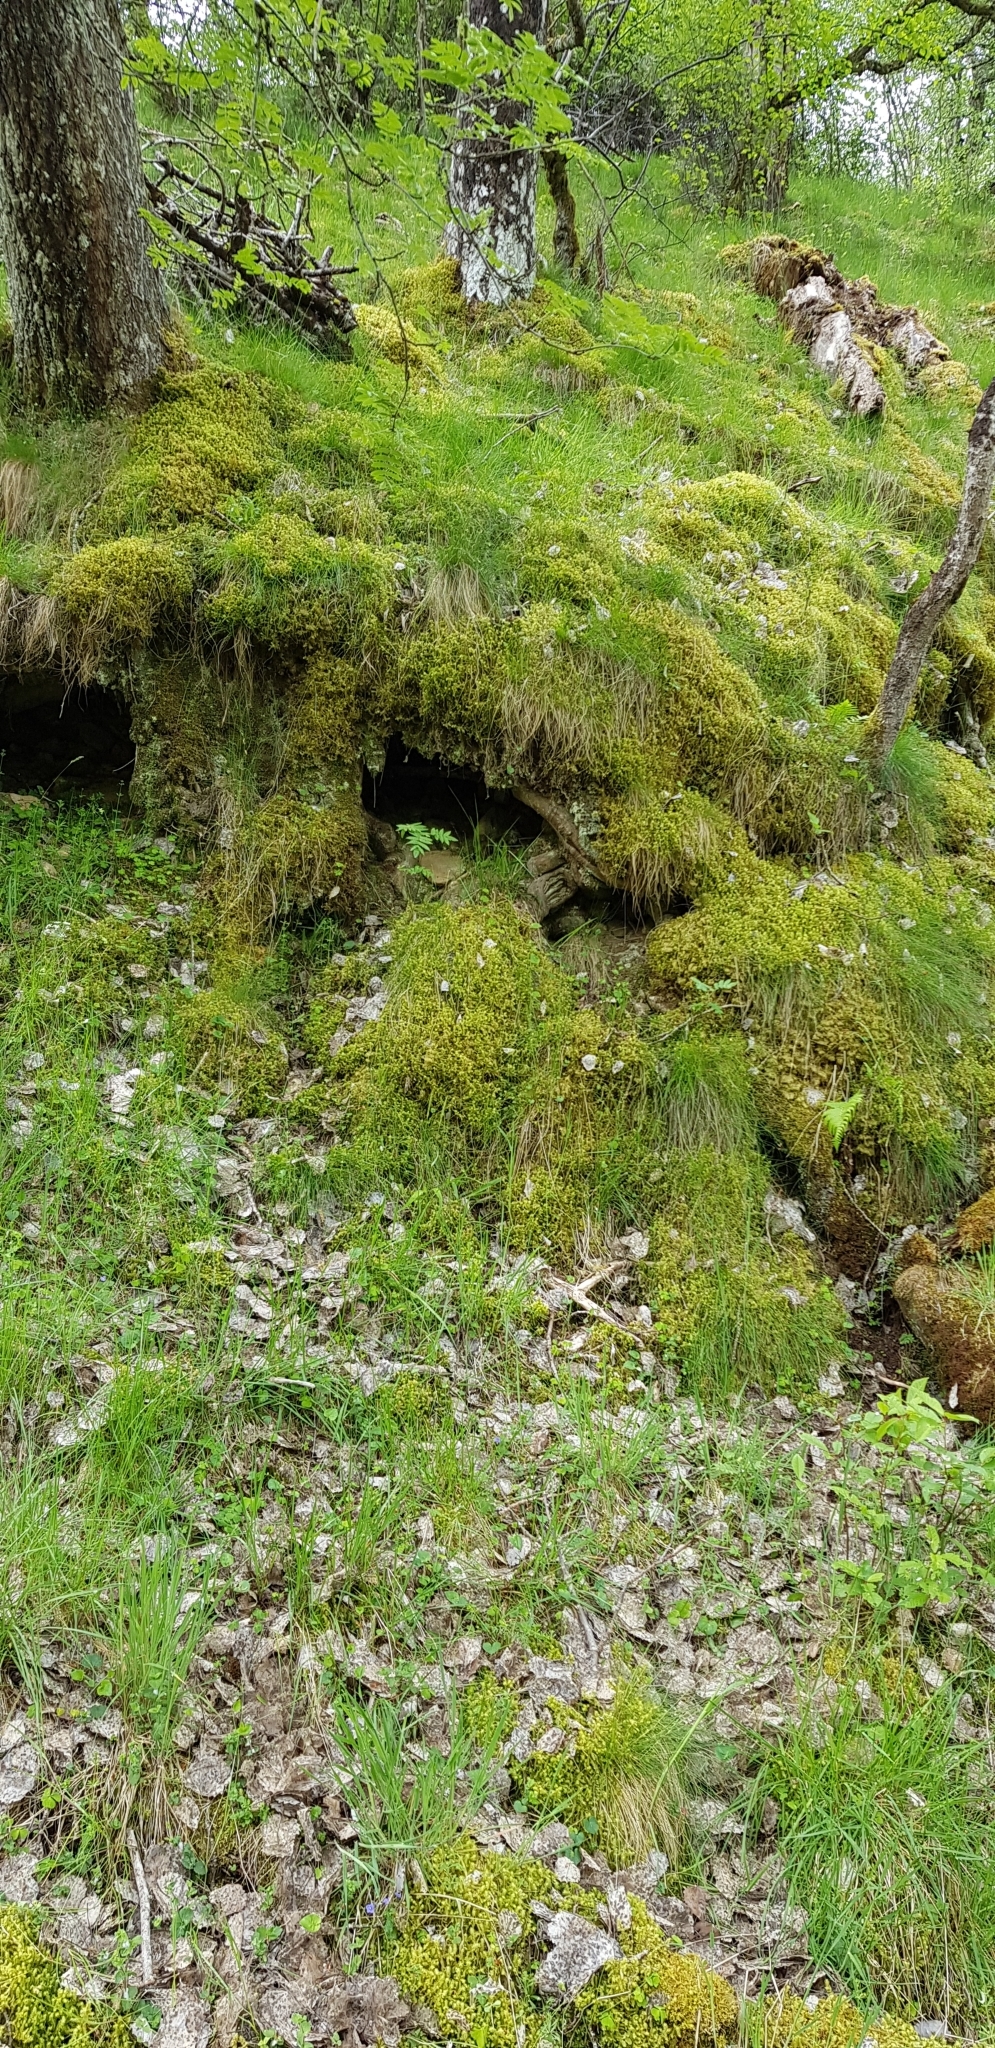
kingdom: Plantae
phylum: Bryophyta
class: Bryopsida
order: Hypnales
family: Hylocomiaceae
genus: Hylocomiadelphus
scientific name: Hylocomiadelphus triquetrus
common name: Rough goose neck moss
